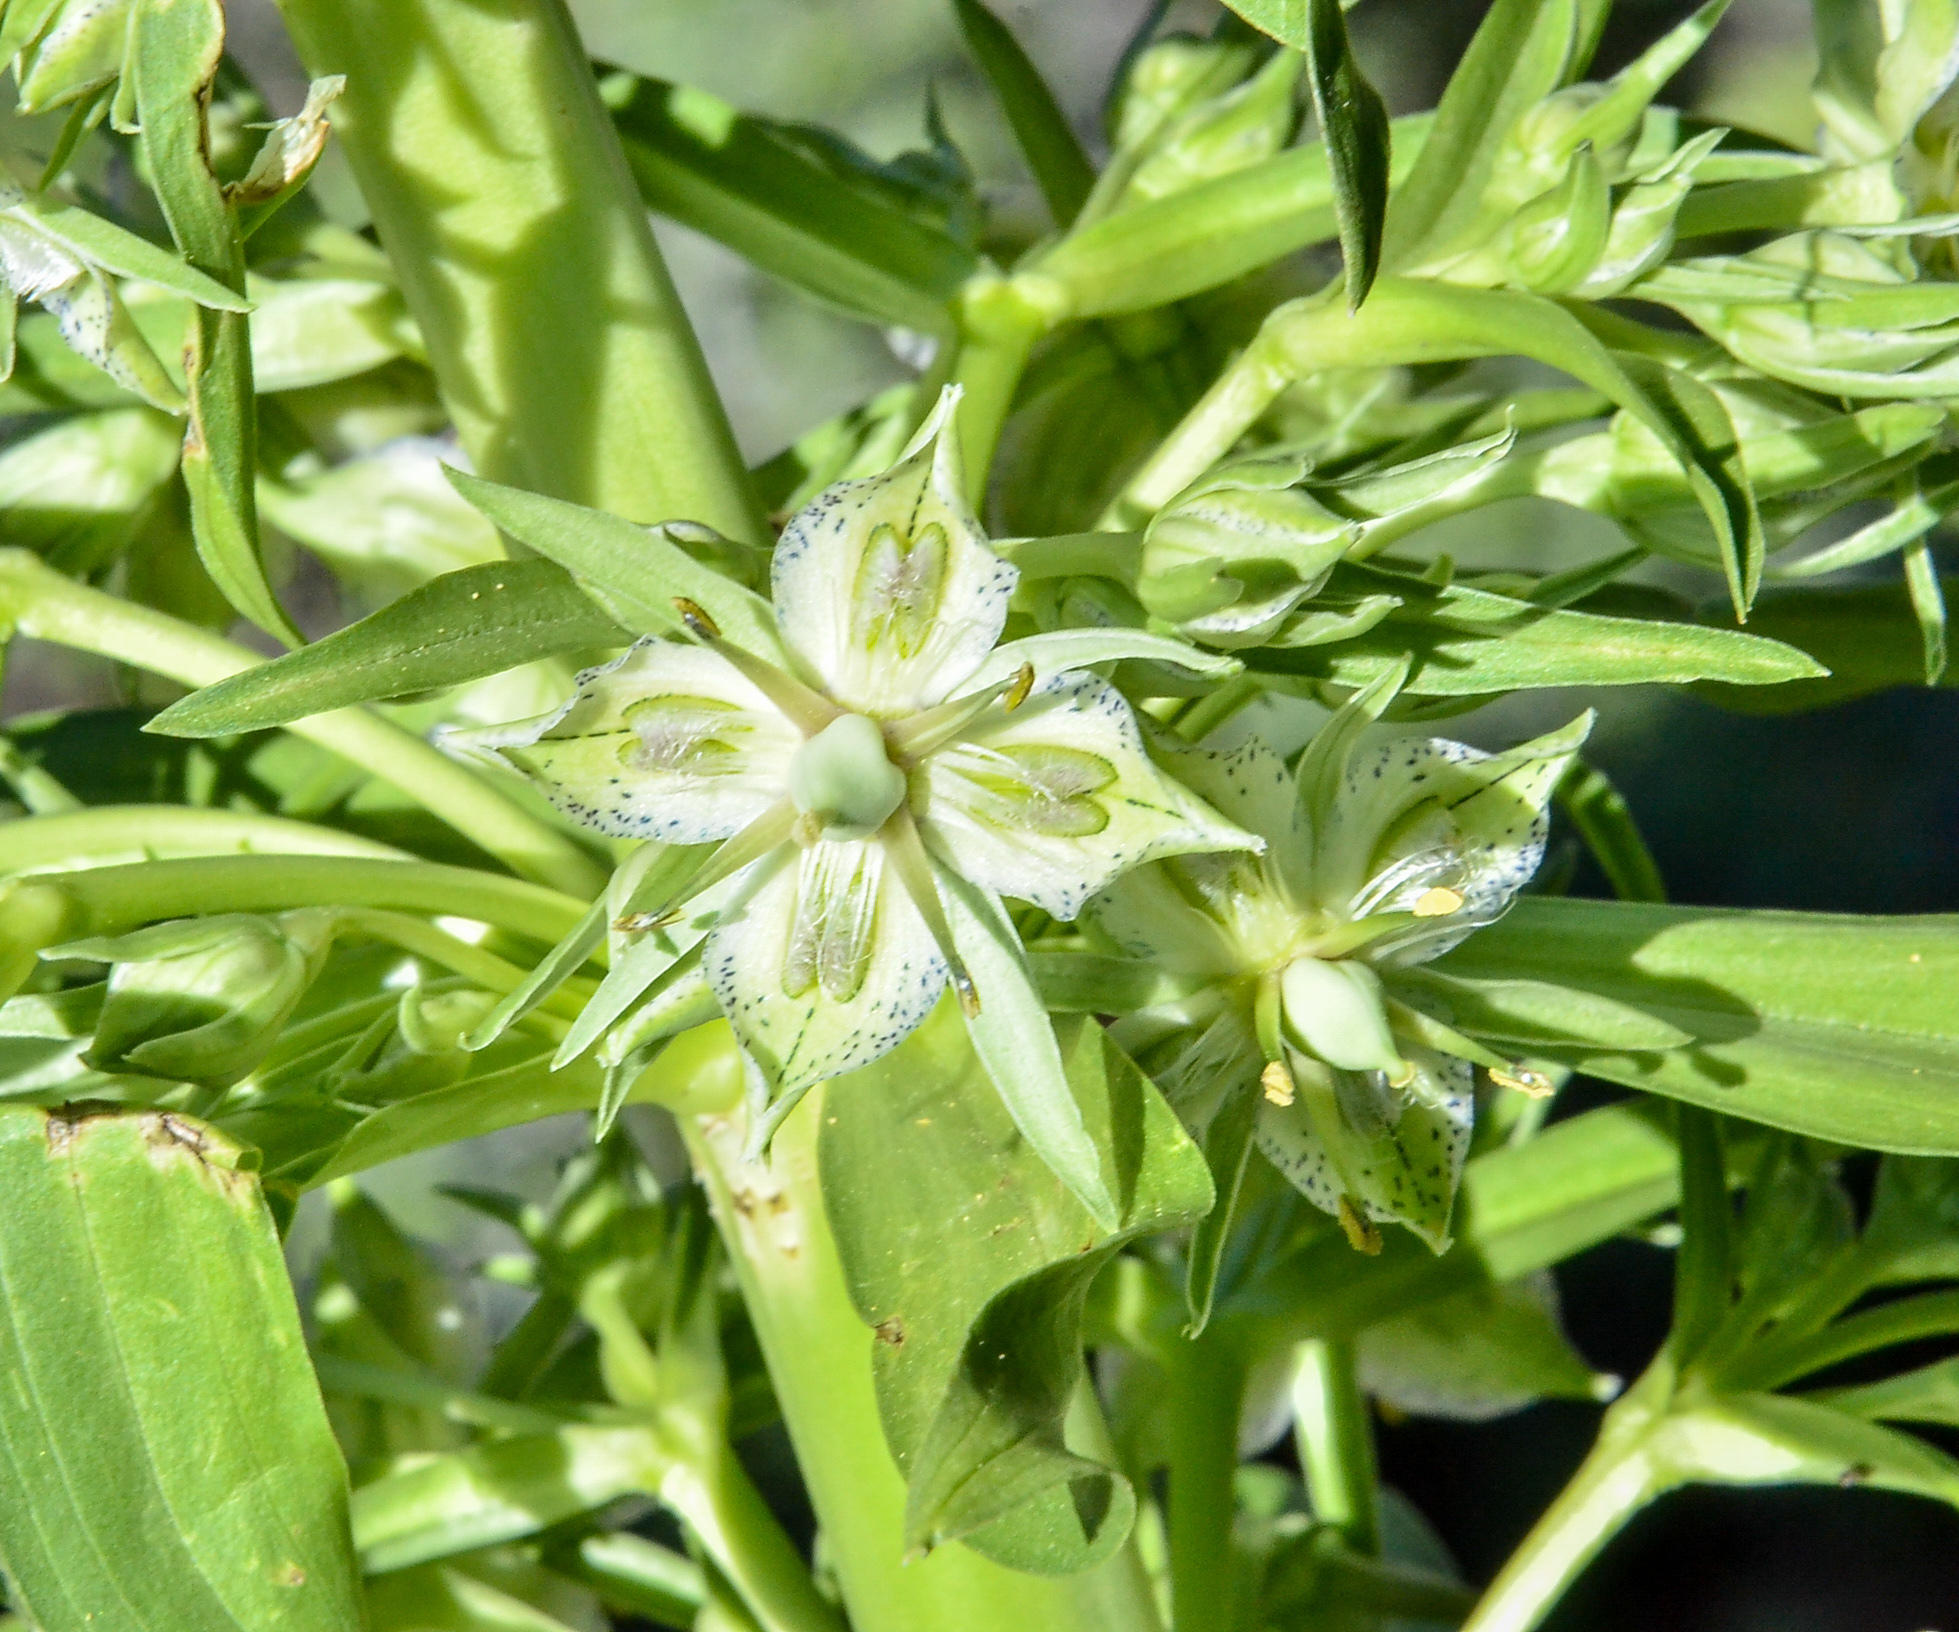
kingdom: Plantae
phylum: Tracheophyta
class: Magnoliopsida
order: Gentianales
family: Gentianaceae
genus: Frasera
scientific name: Frasera speciosa
